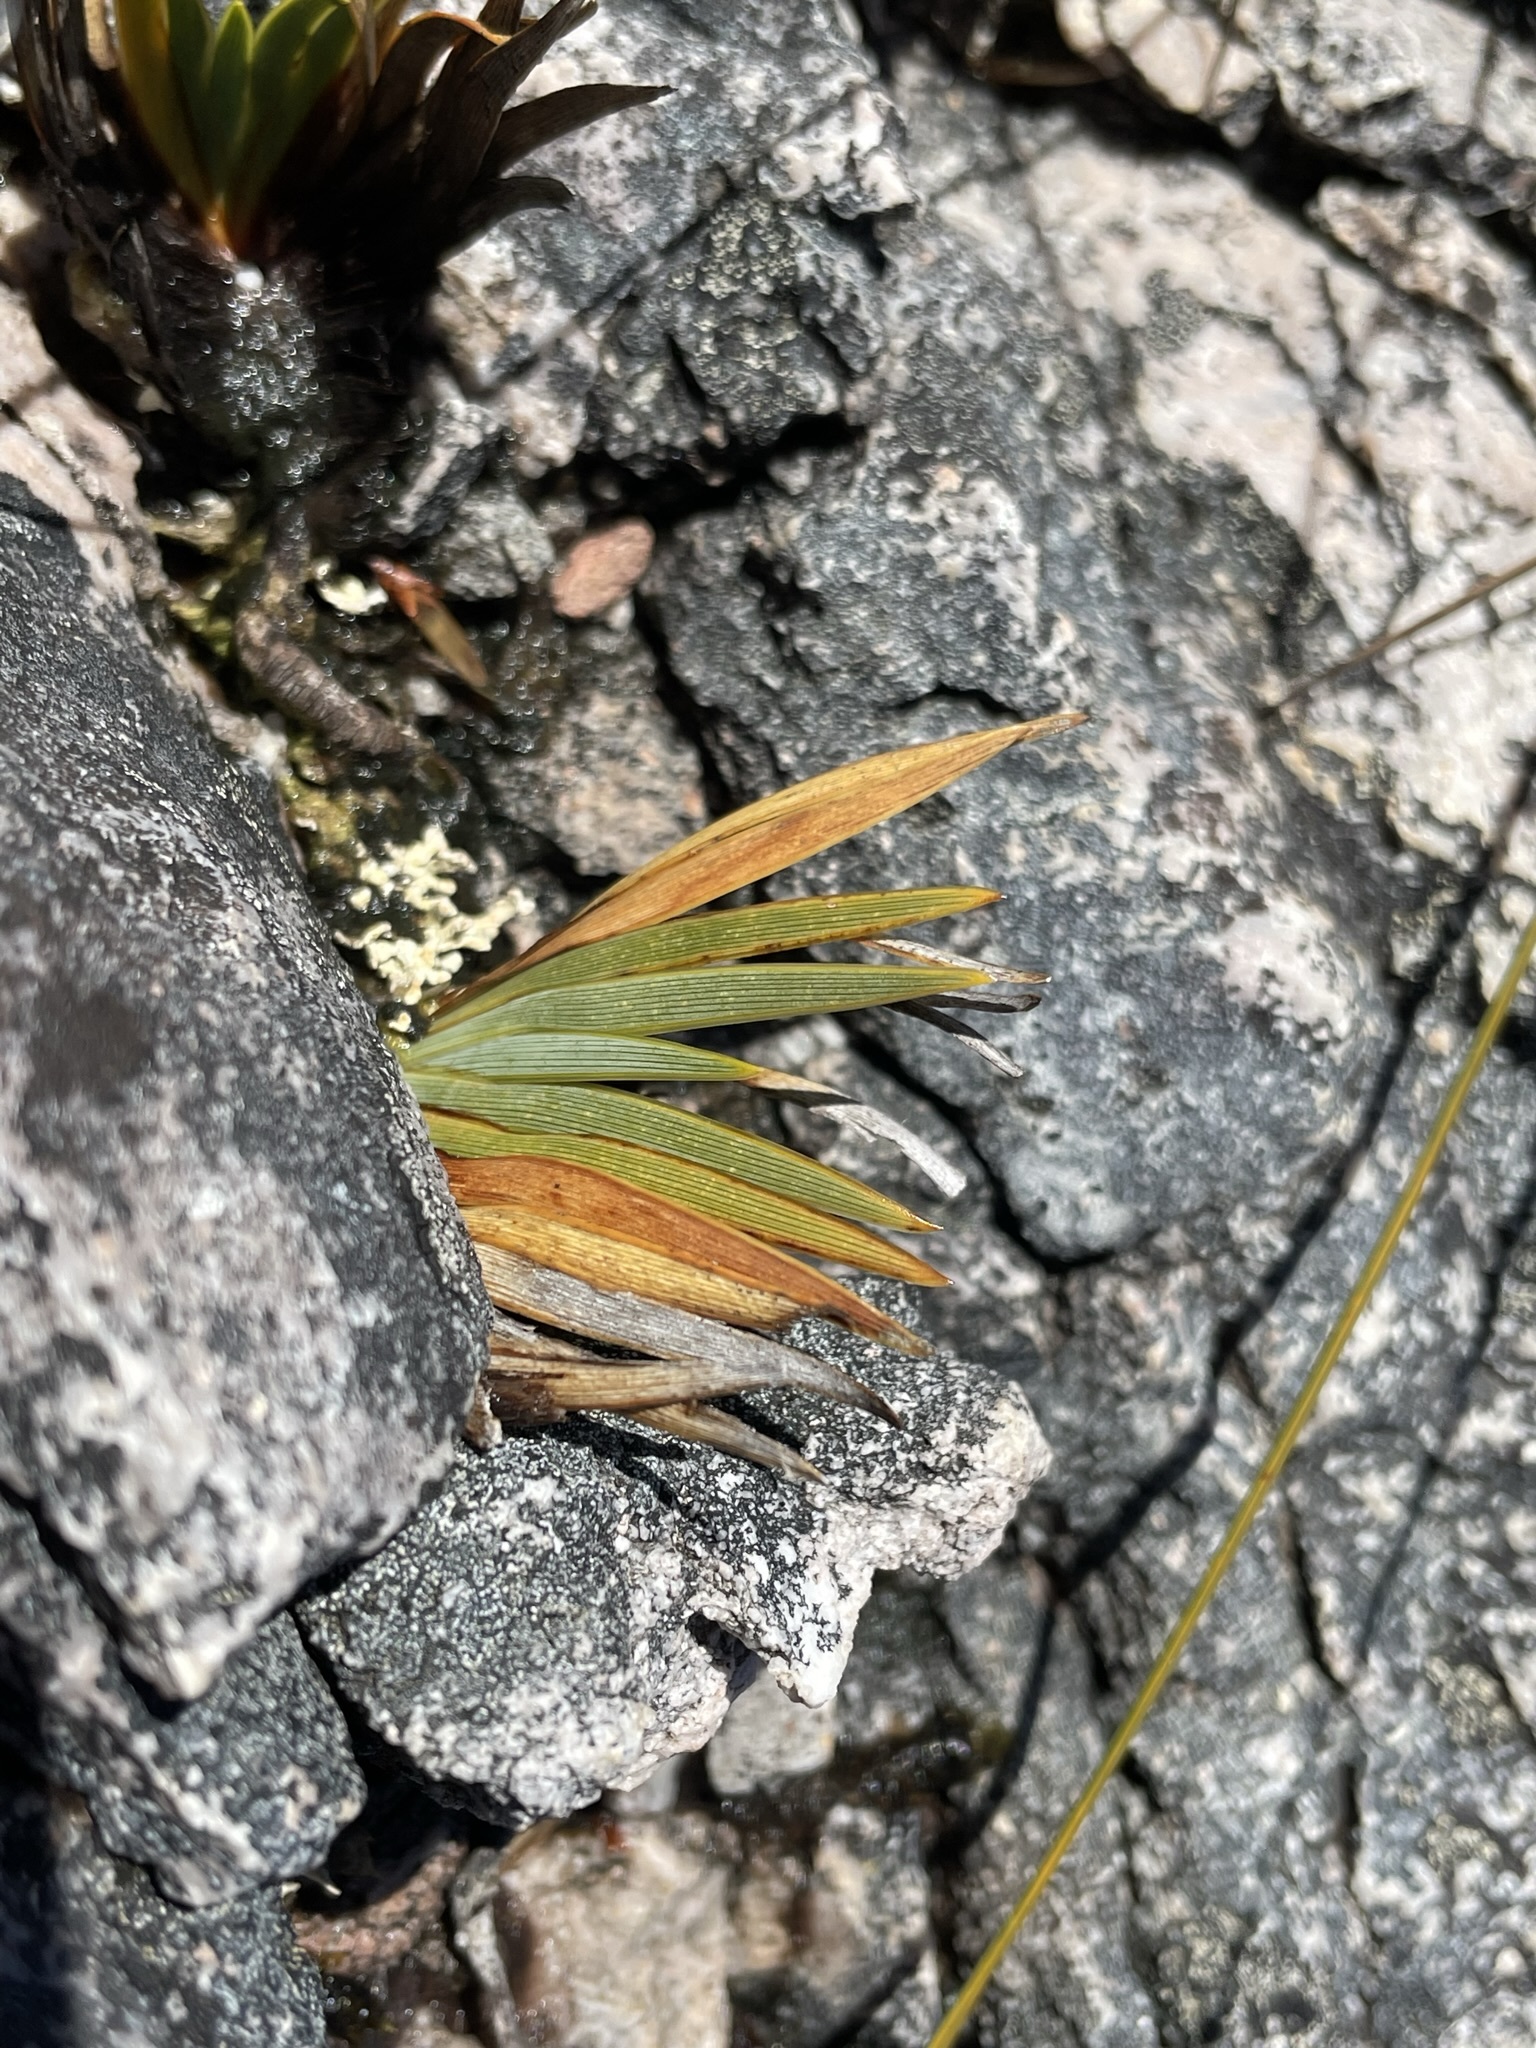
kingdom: Plantae
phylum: Tracheophyta
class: Liliopsida
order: Asparagales
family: Iridaceae
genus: Isophysis
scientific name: Isophysis tasmanica
